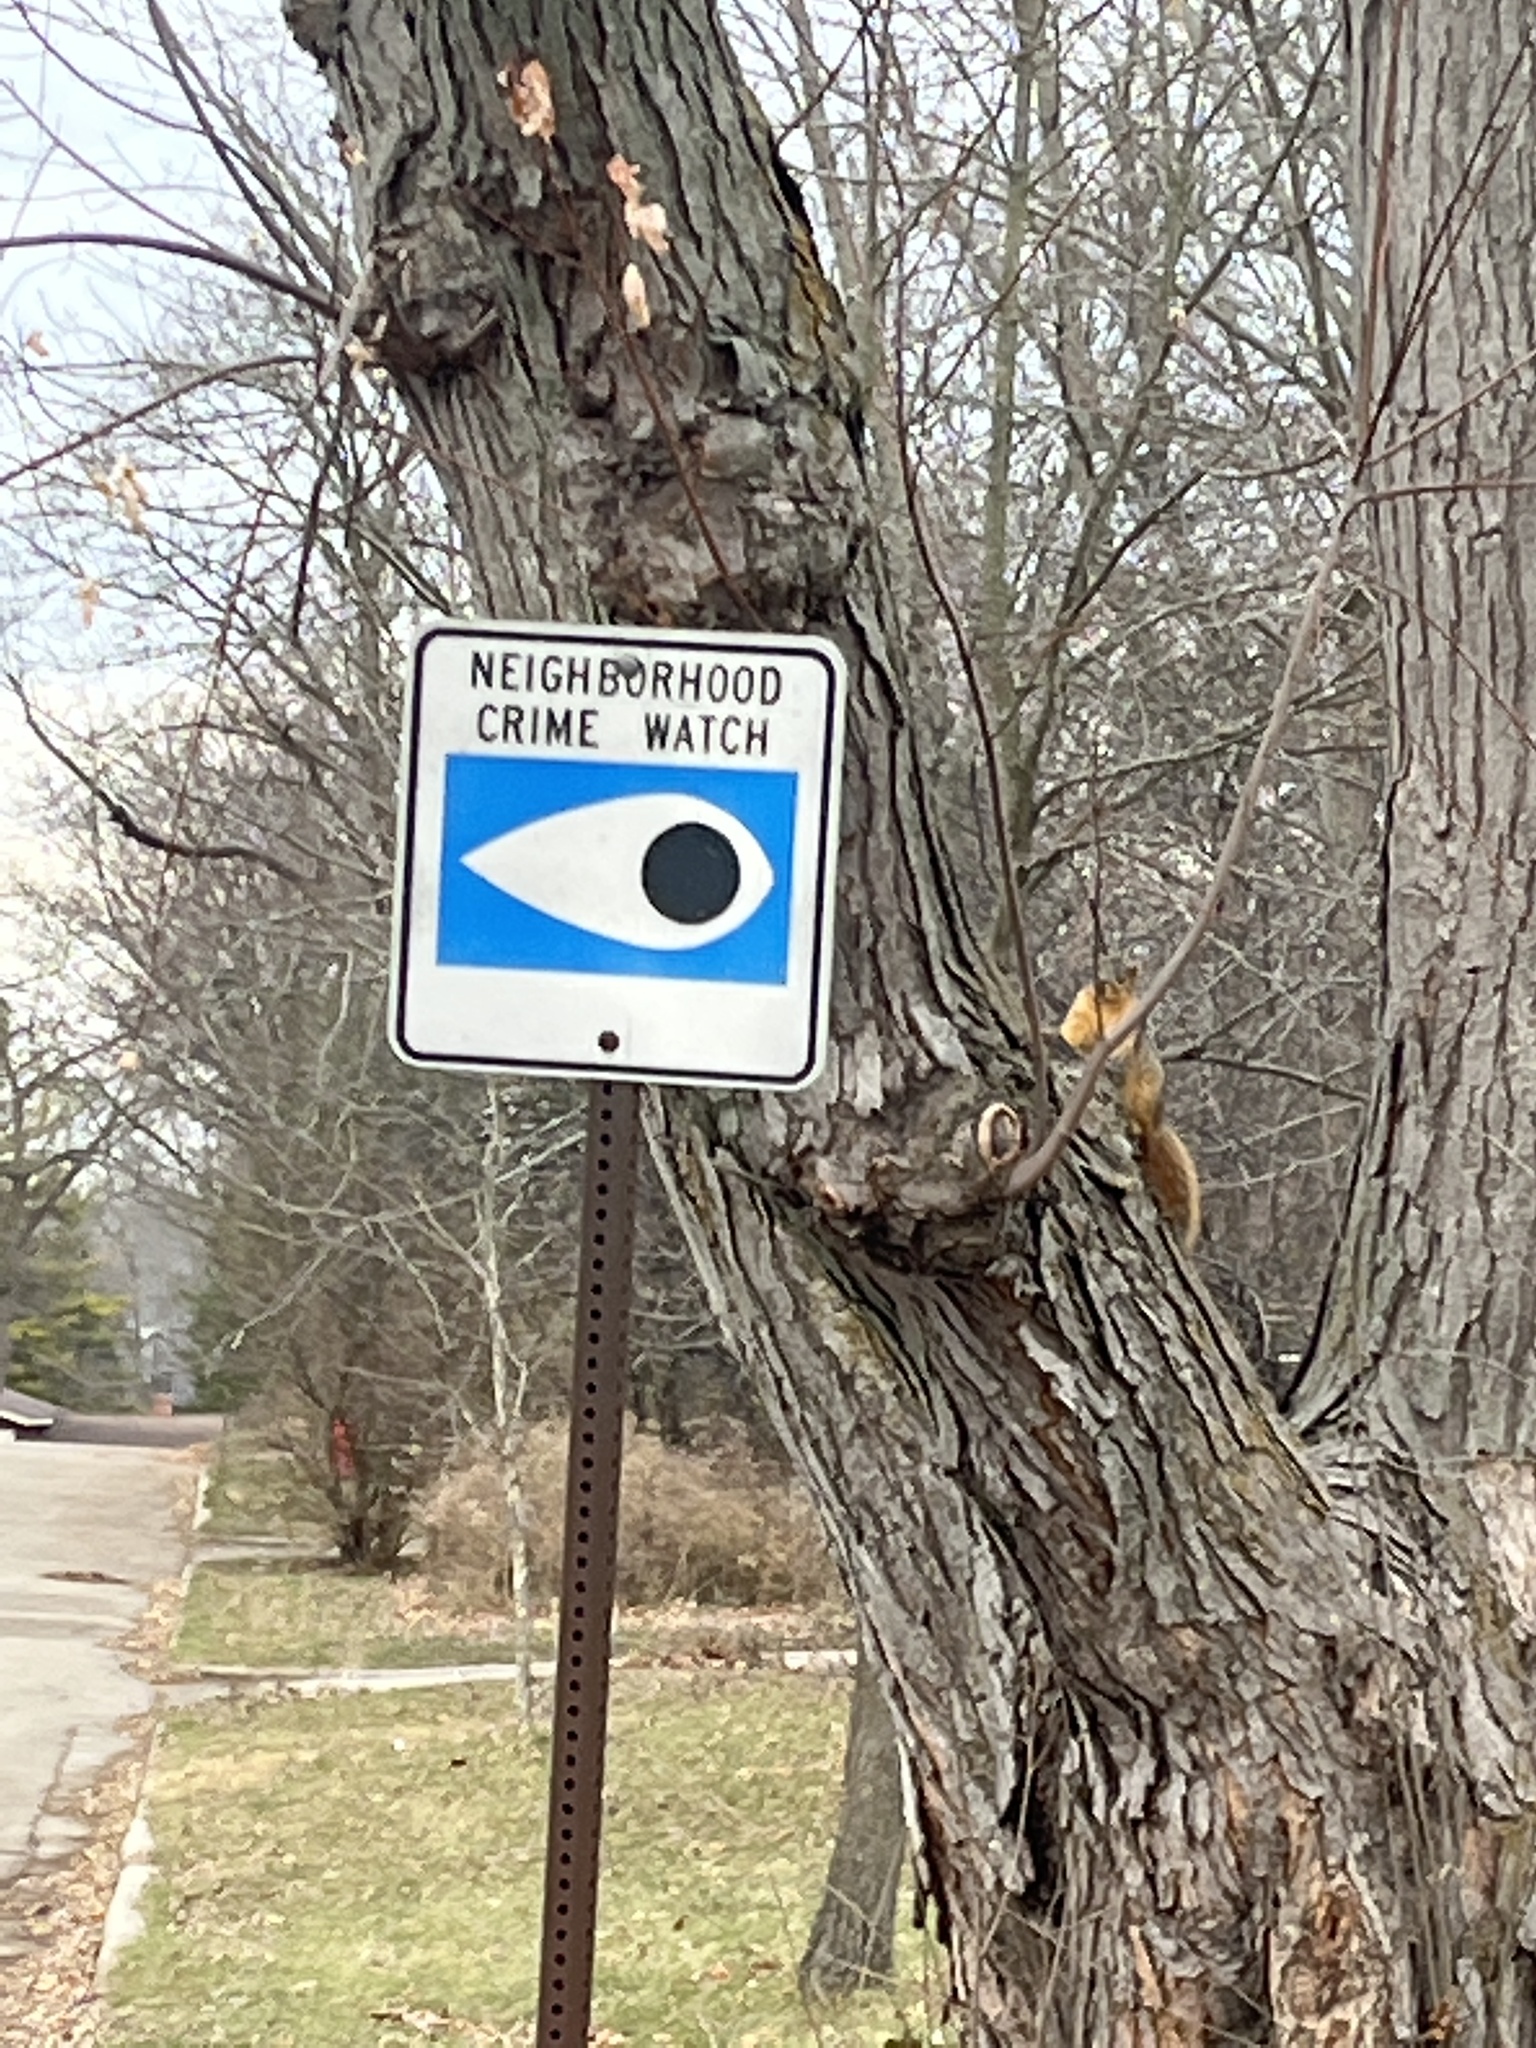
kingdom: Animalia
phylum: Chordata
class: Mammalia
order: Rodentia
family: Sciuridae
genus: Sciurus
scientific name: Sciurus niger
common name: Fox squirrel
